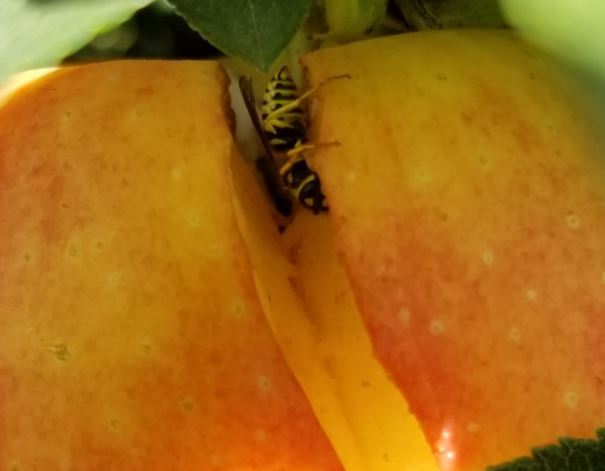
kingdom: Animalia
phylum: Arthropoda
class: Insecta
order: Hymenoptera
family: Vespidae
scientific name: Vespidae
